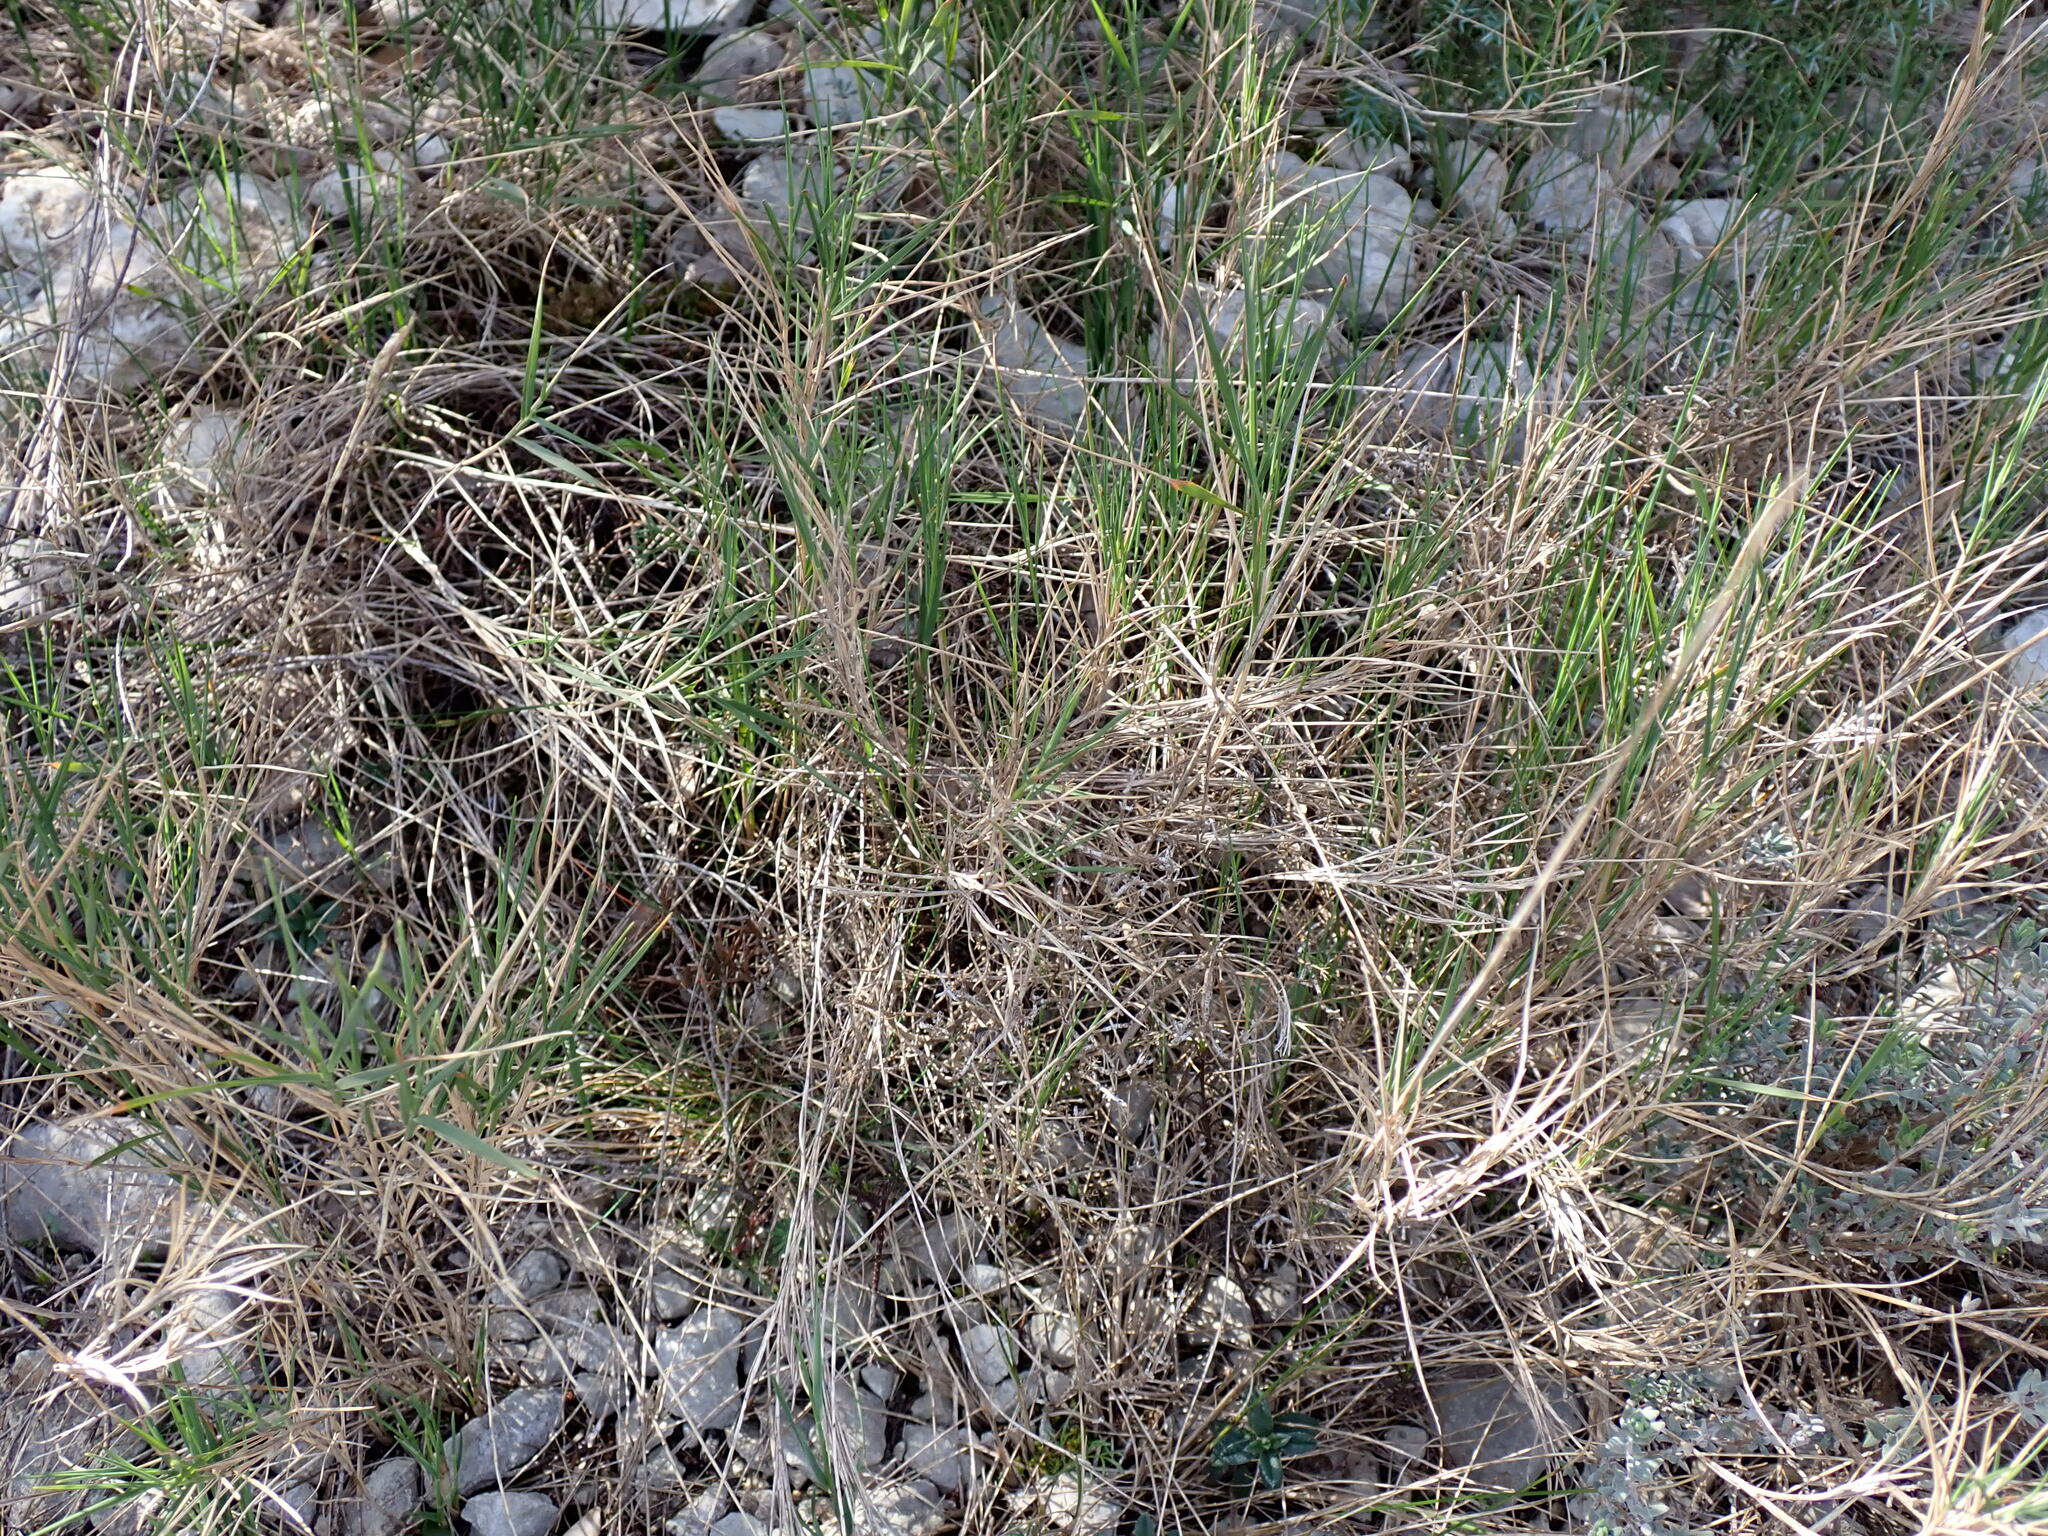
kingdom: Plantae
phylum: Tracheophyta
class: Liliopsida
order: Poales
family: Poaceae
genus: Brachypodium
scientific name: Brachypodium retusum
